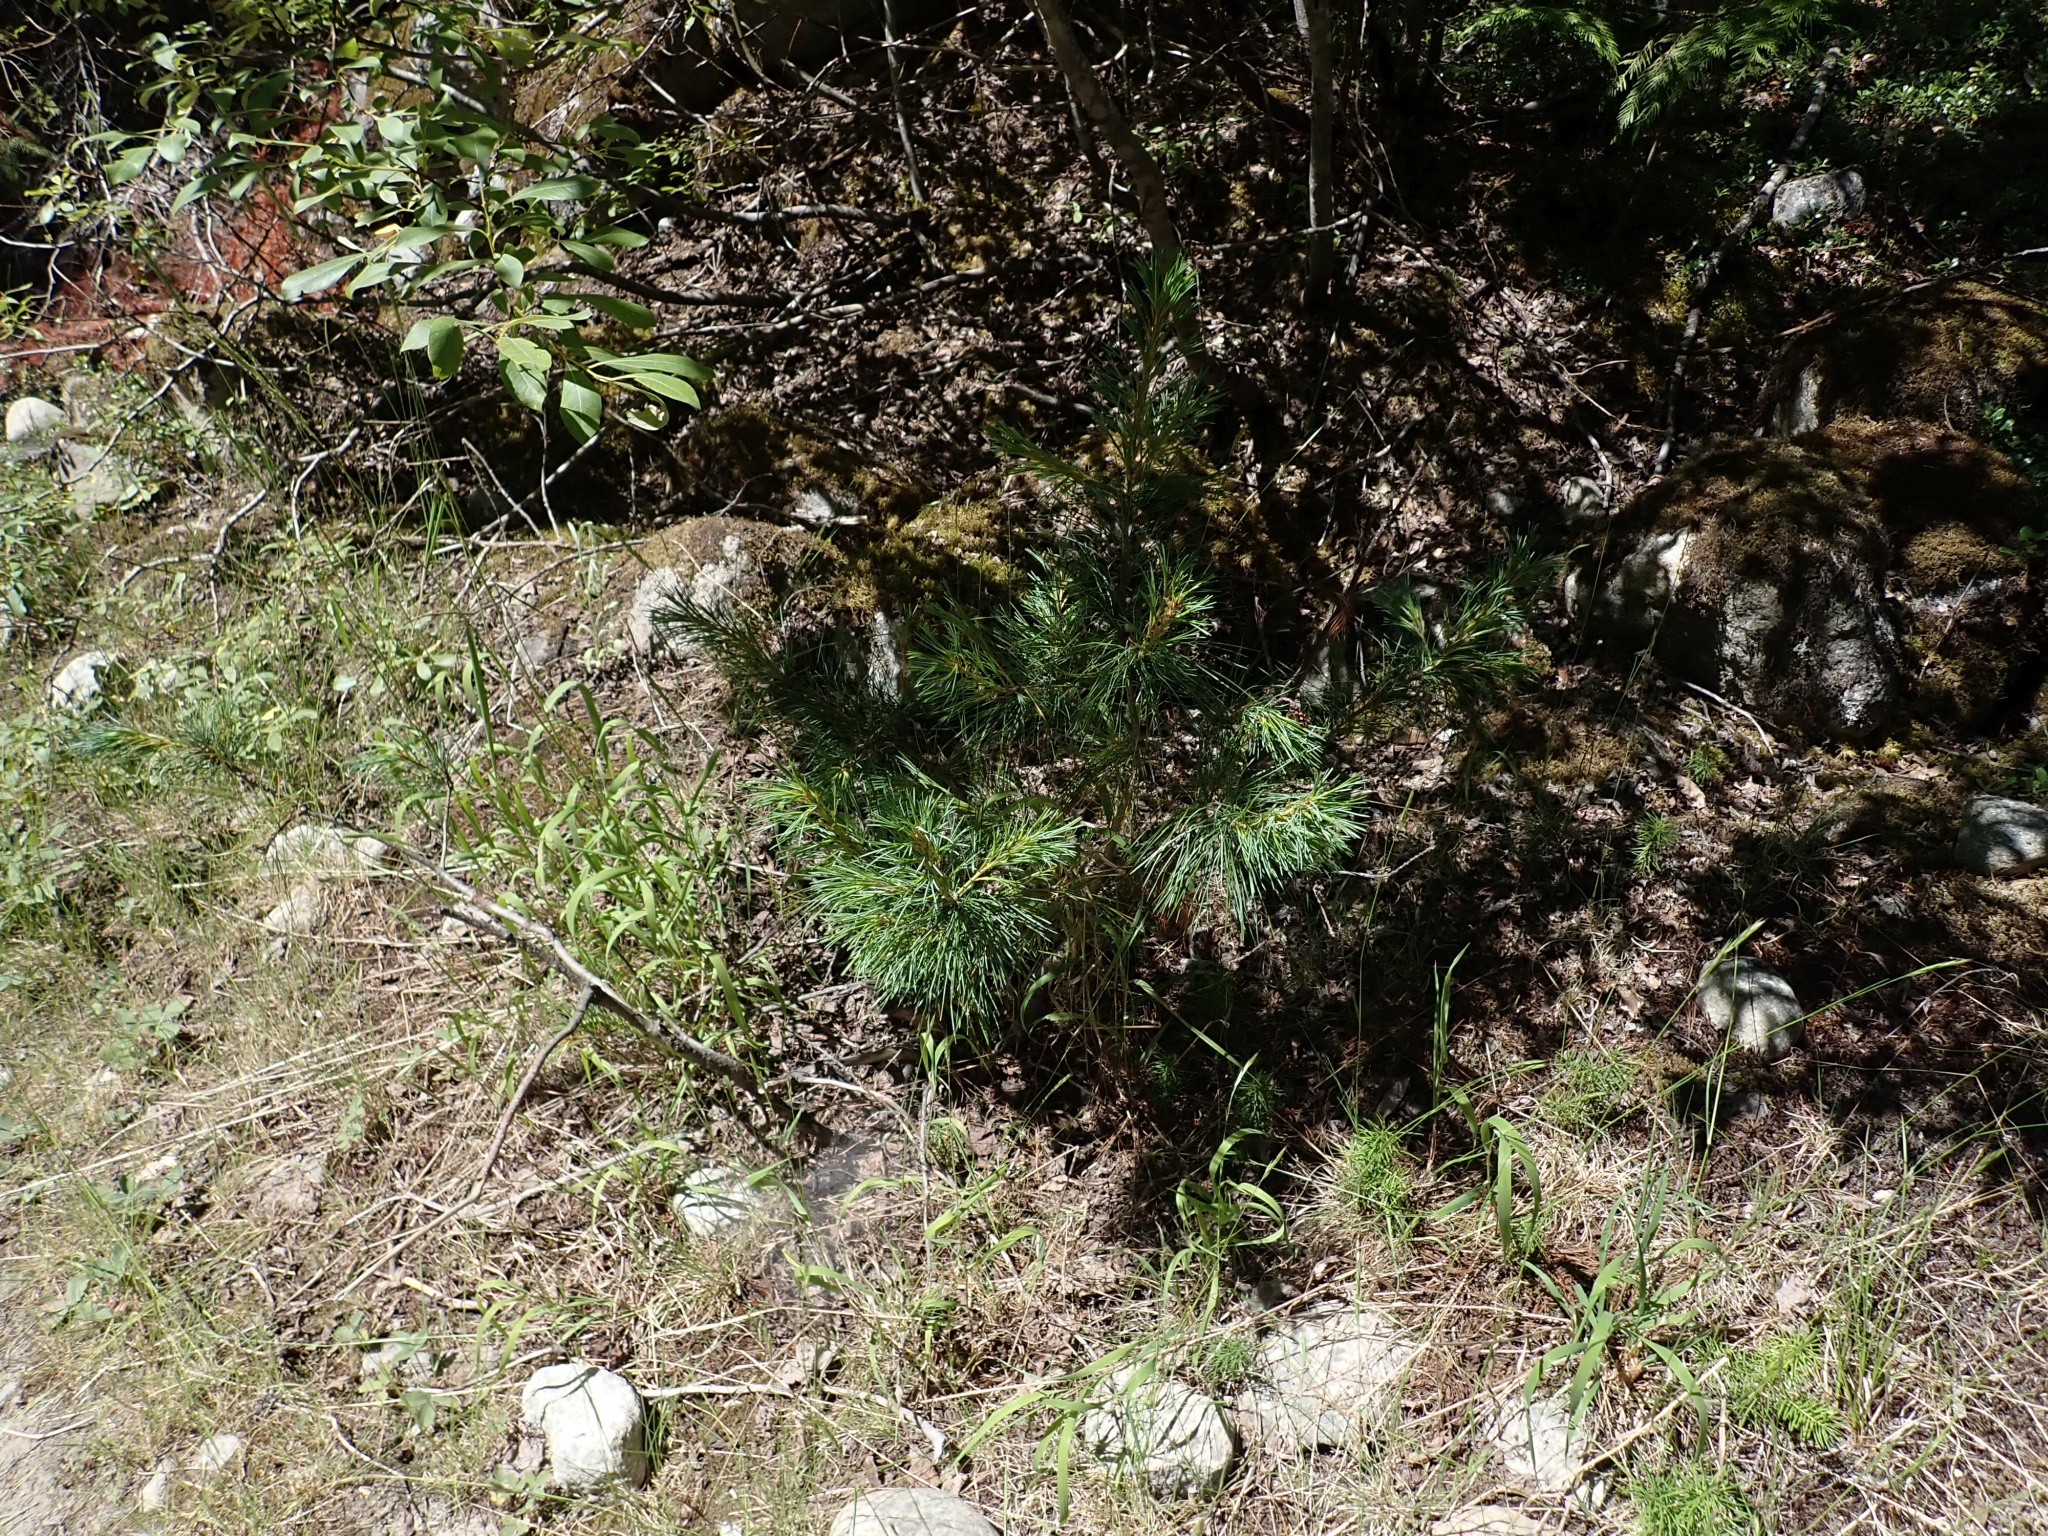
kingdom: Plantae
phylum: Tracheophyta
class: Pinopsida
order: Pinales
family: Pinaceae
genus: Pinus
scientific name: Pinus monticola
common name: Western white pine
